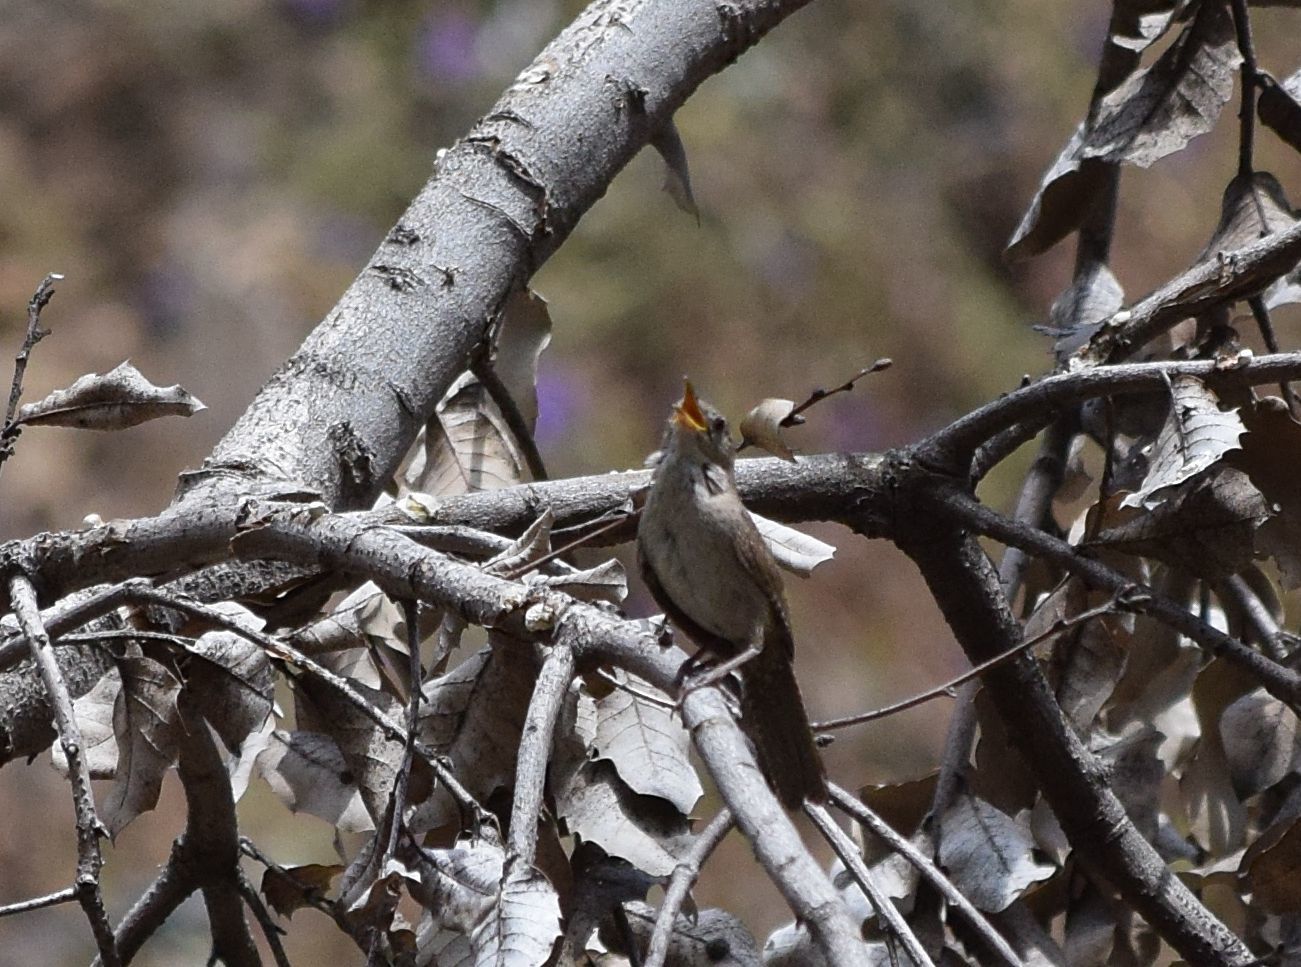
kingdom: Animalia
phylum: Chordata
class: Aves
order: Passeriformes
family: Troglodytidae
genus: Troglodytes
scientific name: Troglodytes aedon
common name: House wren
